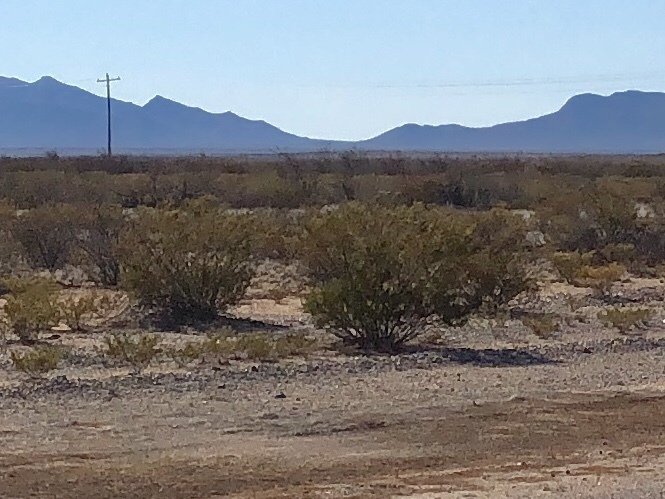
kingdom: Plantae
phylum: Tracheophyta
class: Magnoliopsida
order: Zygophyllales
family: Zygophyllaceae
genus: Larrea
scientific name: Larrea tridentata
